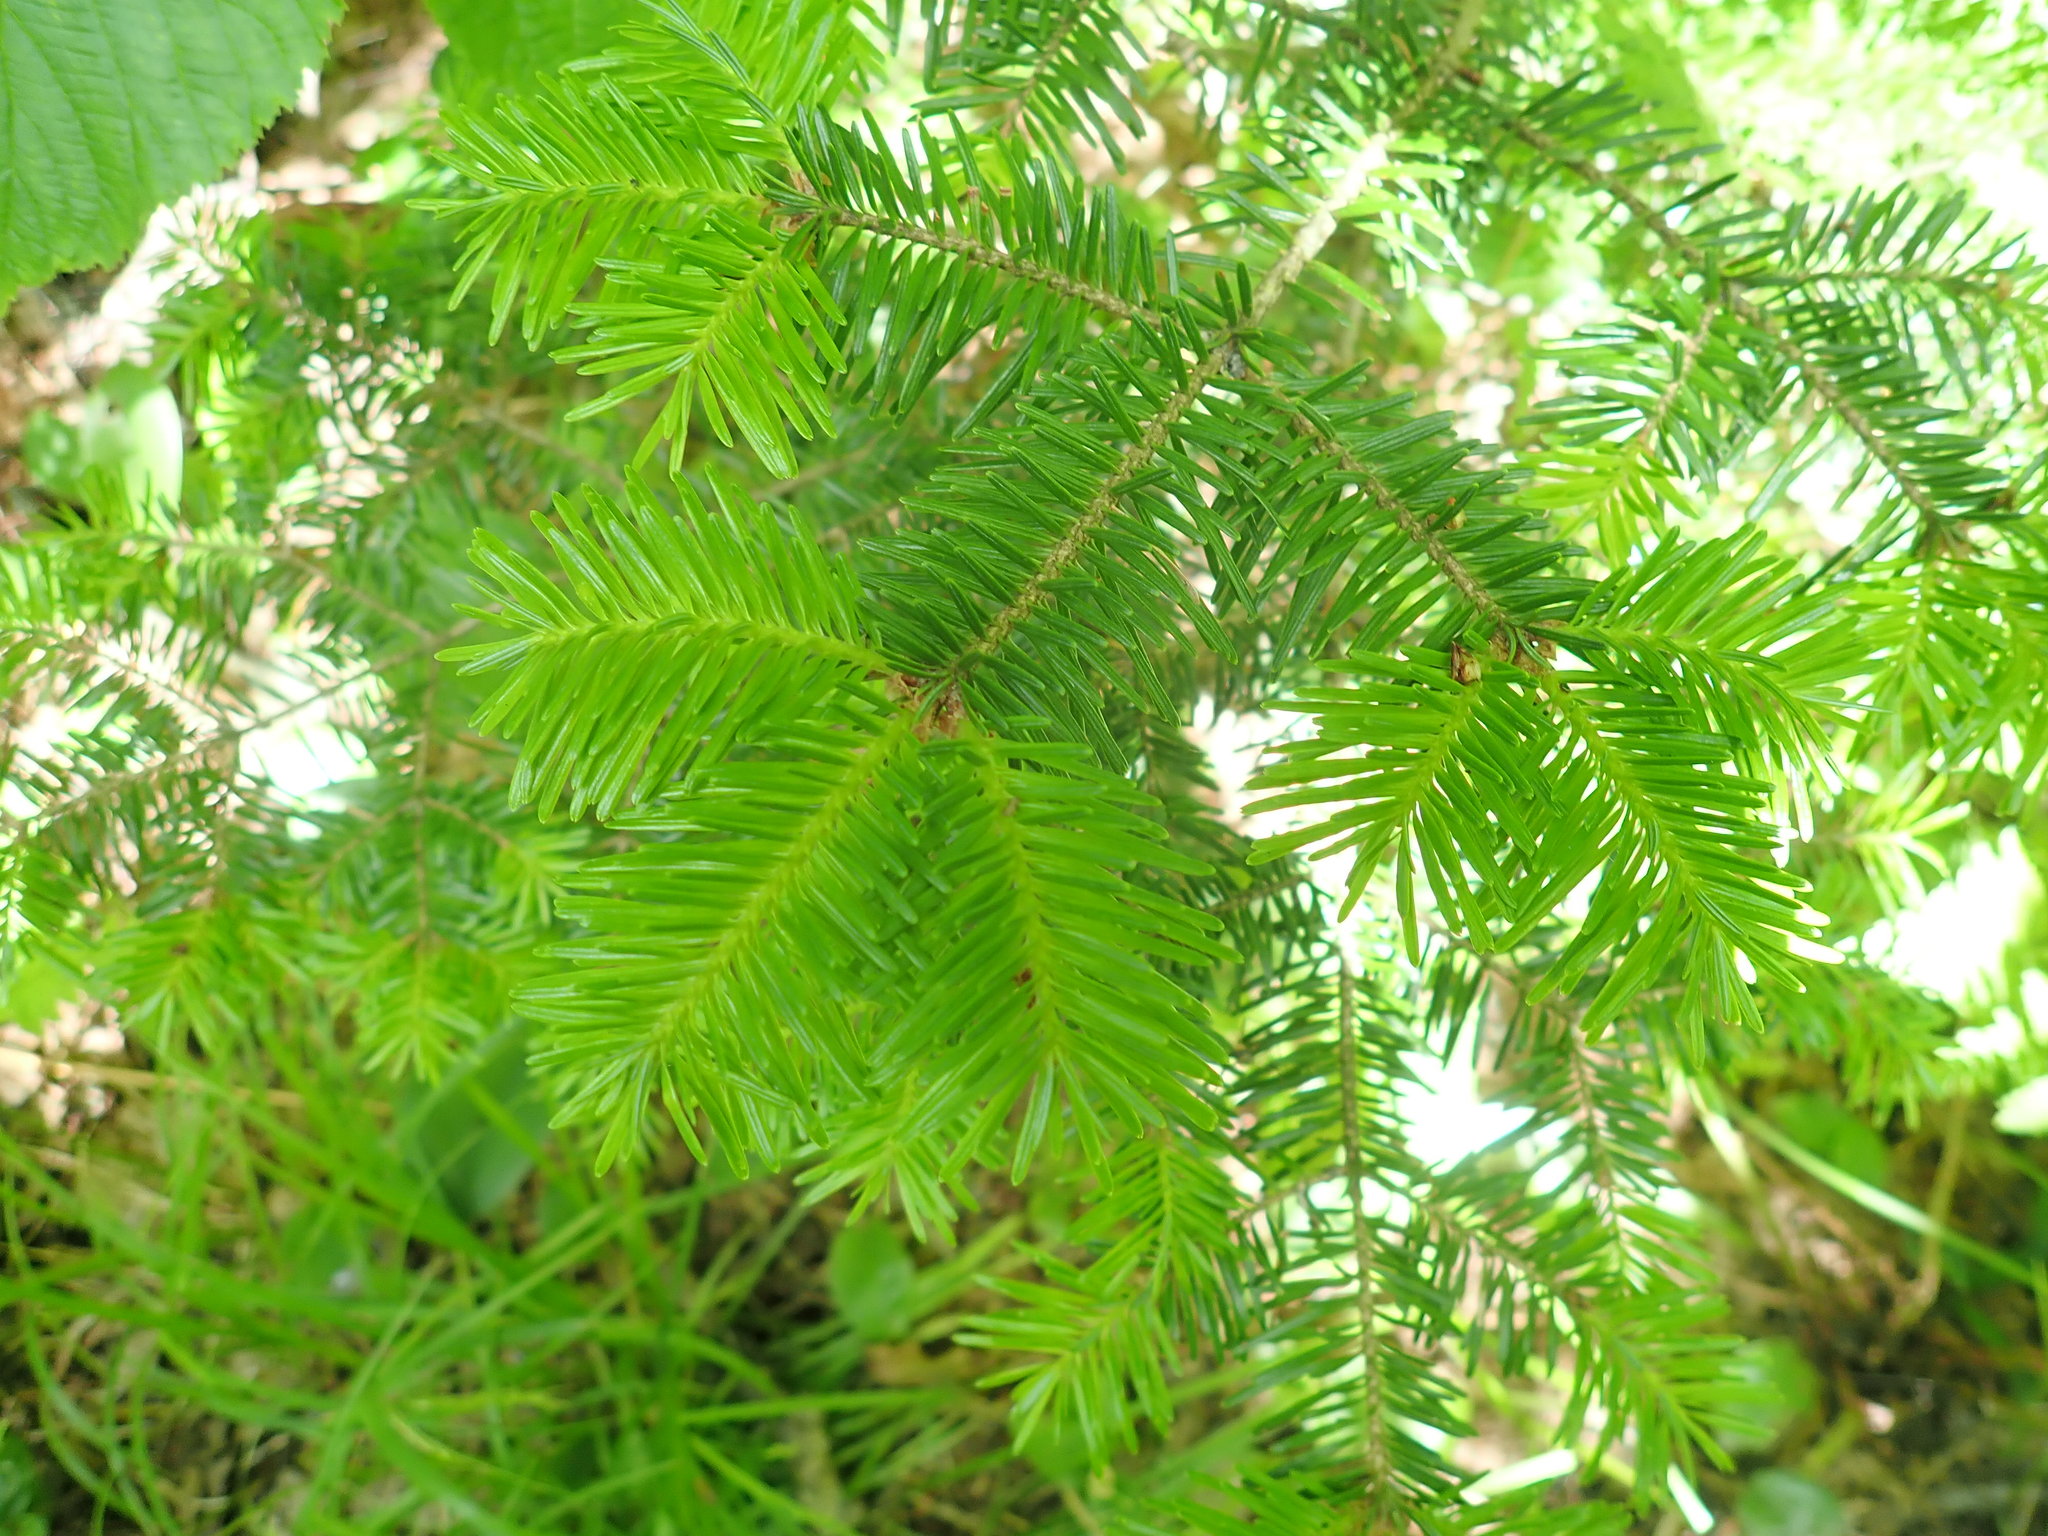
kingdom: Plantae
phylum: Tracheophyta
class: Pinopsida
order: Pinales
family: Pinaceae
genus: Abies
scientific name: Abies balsamea
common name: Balsam fir
